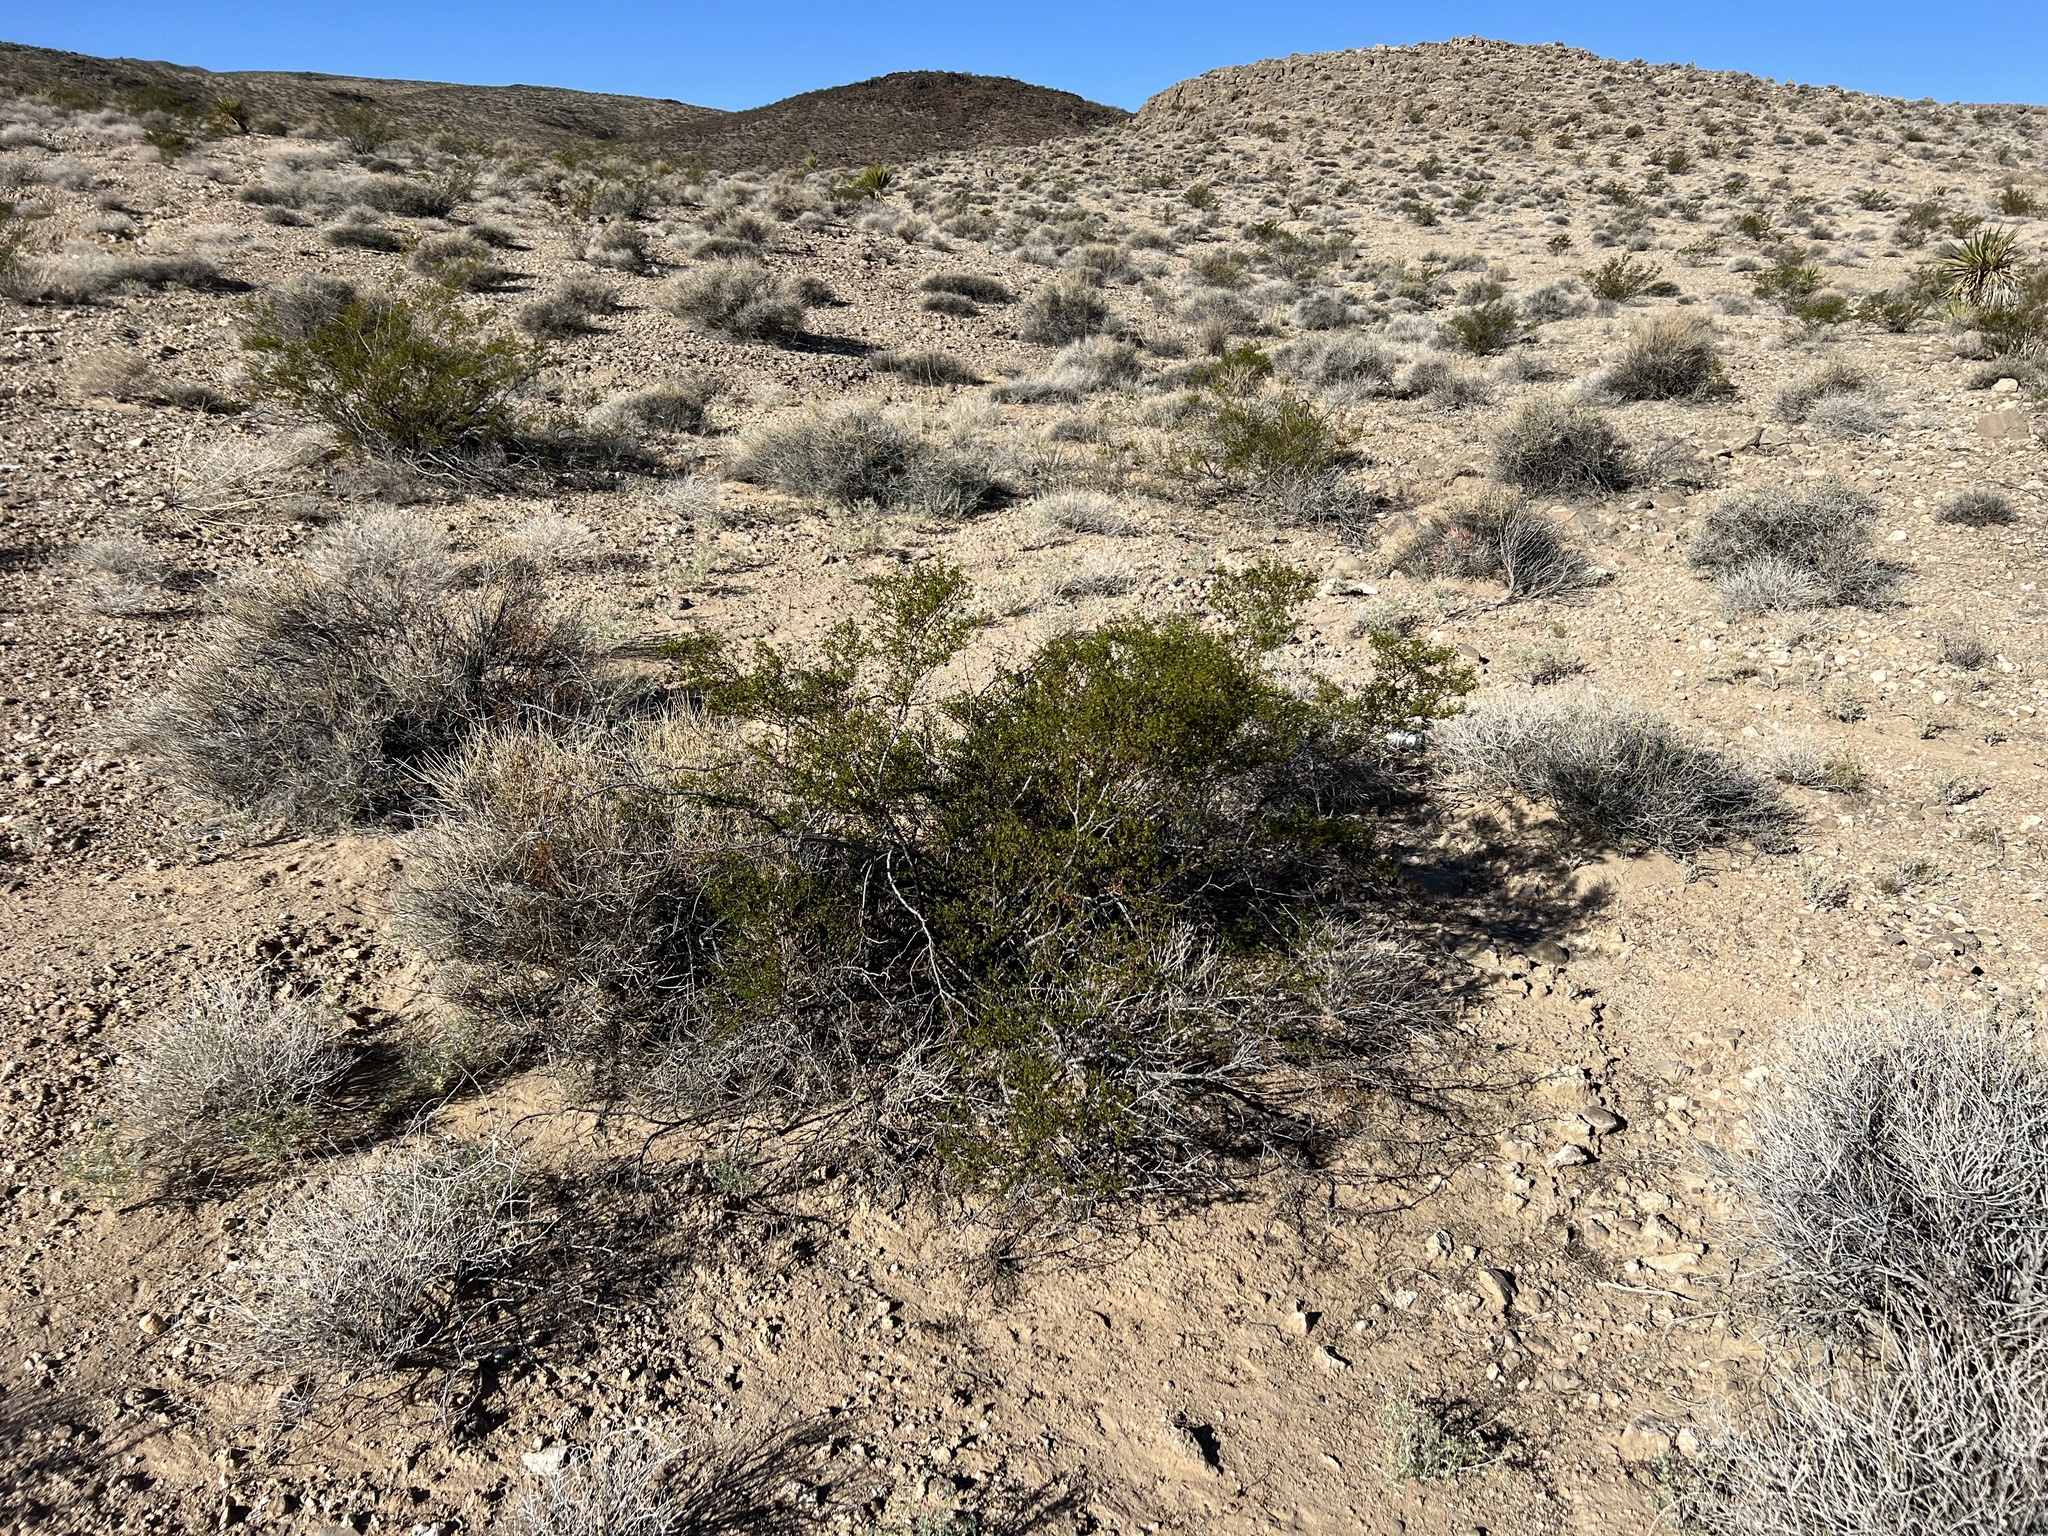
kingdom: Plantae
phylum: Tracheophyta
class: Magnoliopsida
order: Zygophyllales
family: Zygophyllaceae
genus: Larrea
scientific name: Larrea tridentata
